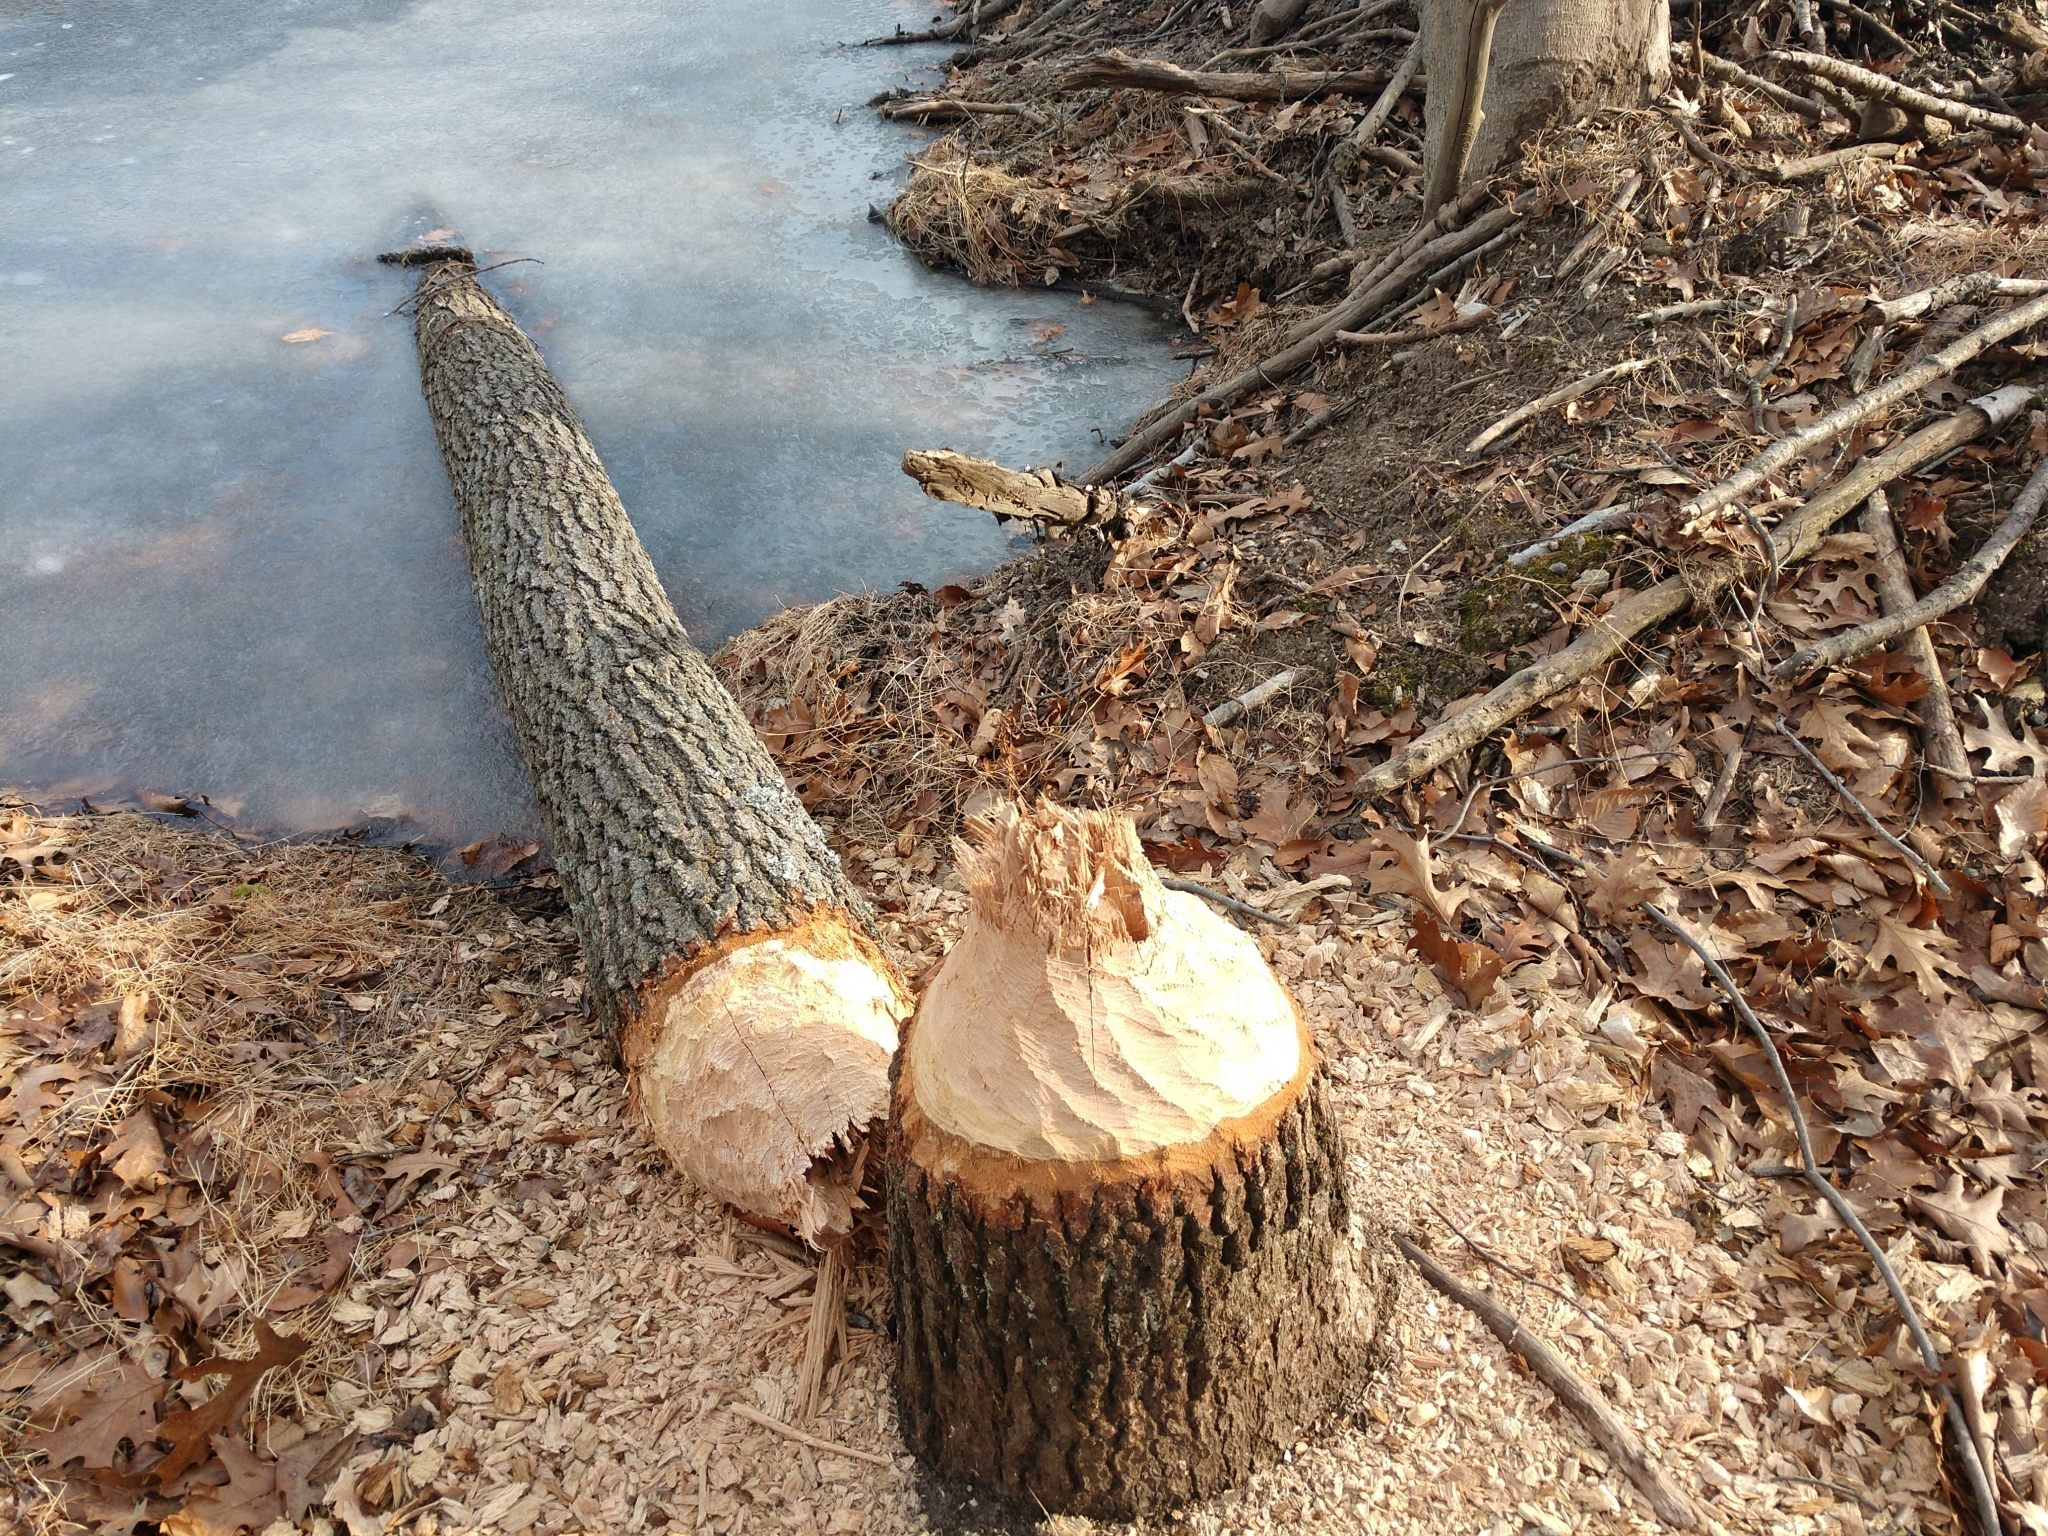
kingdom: Animalia
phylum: Chordata
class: Mammalia
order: Rodentia
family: Castoridae
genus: Castor
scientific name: Castor canadensis
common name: American beaver
